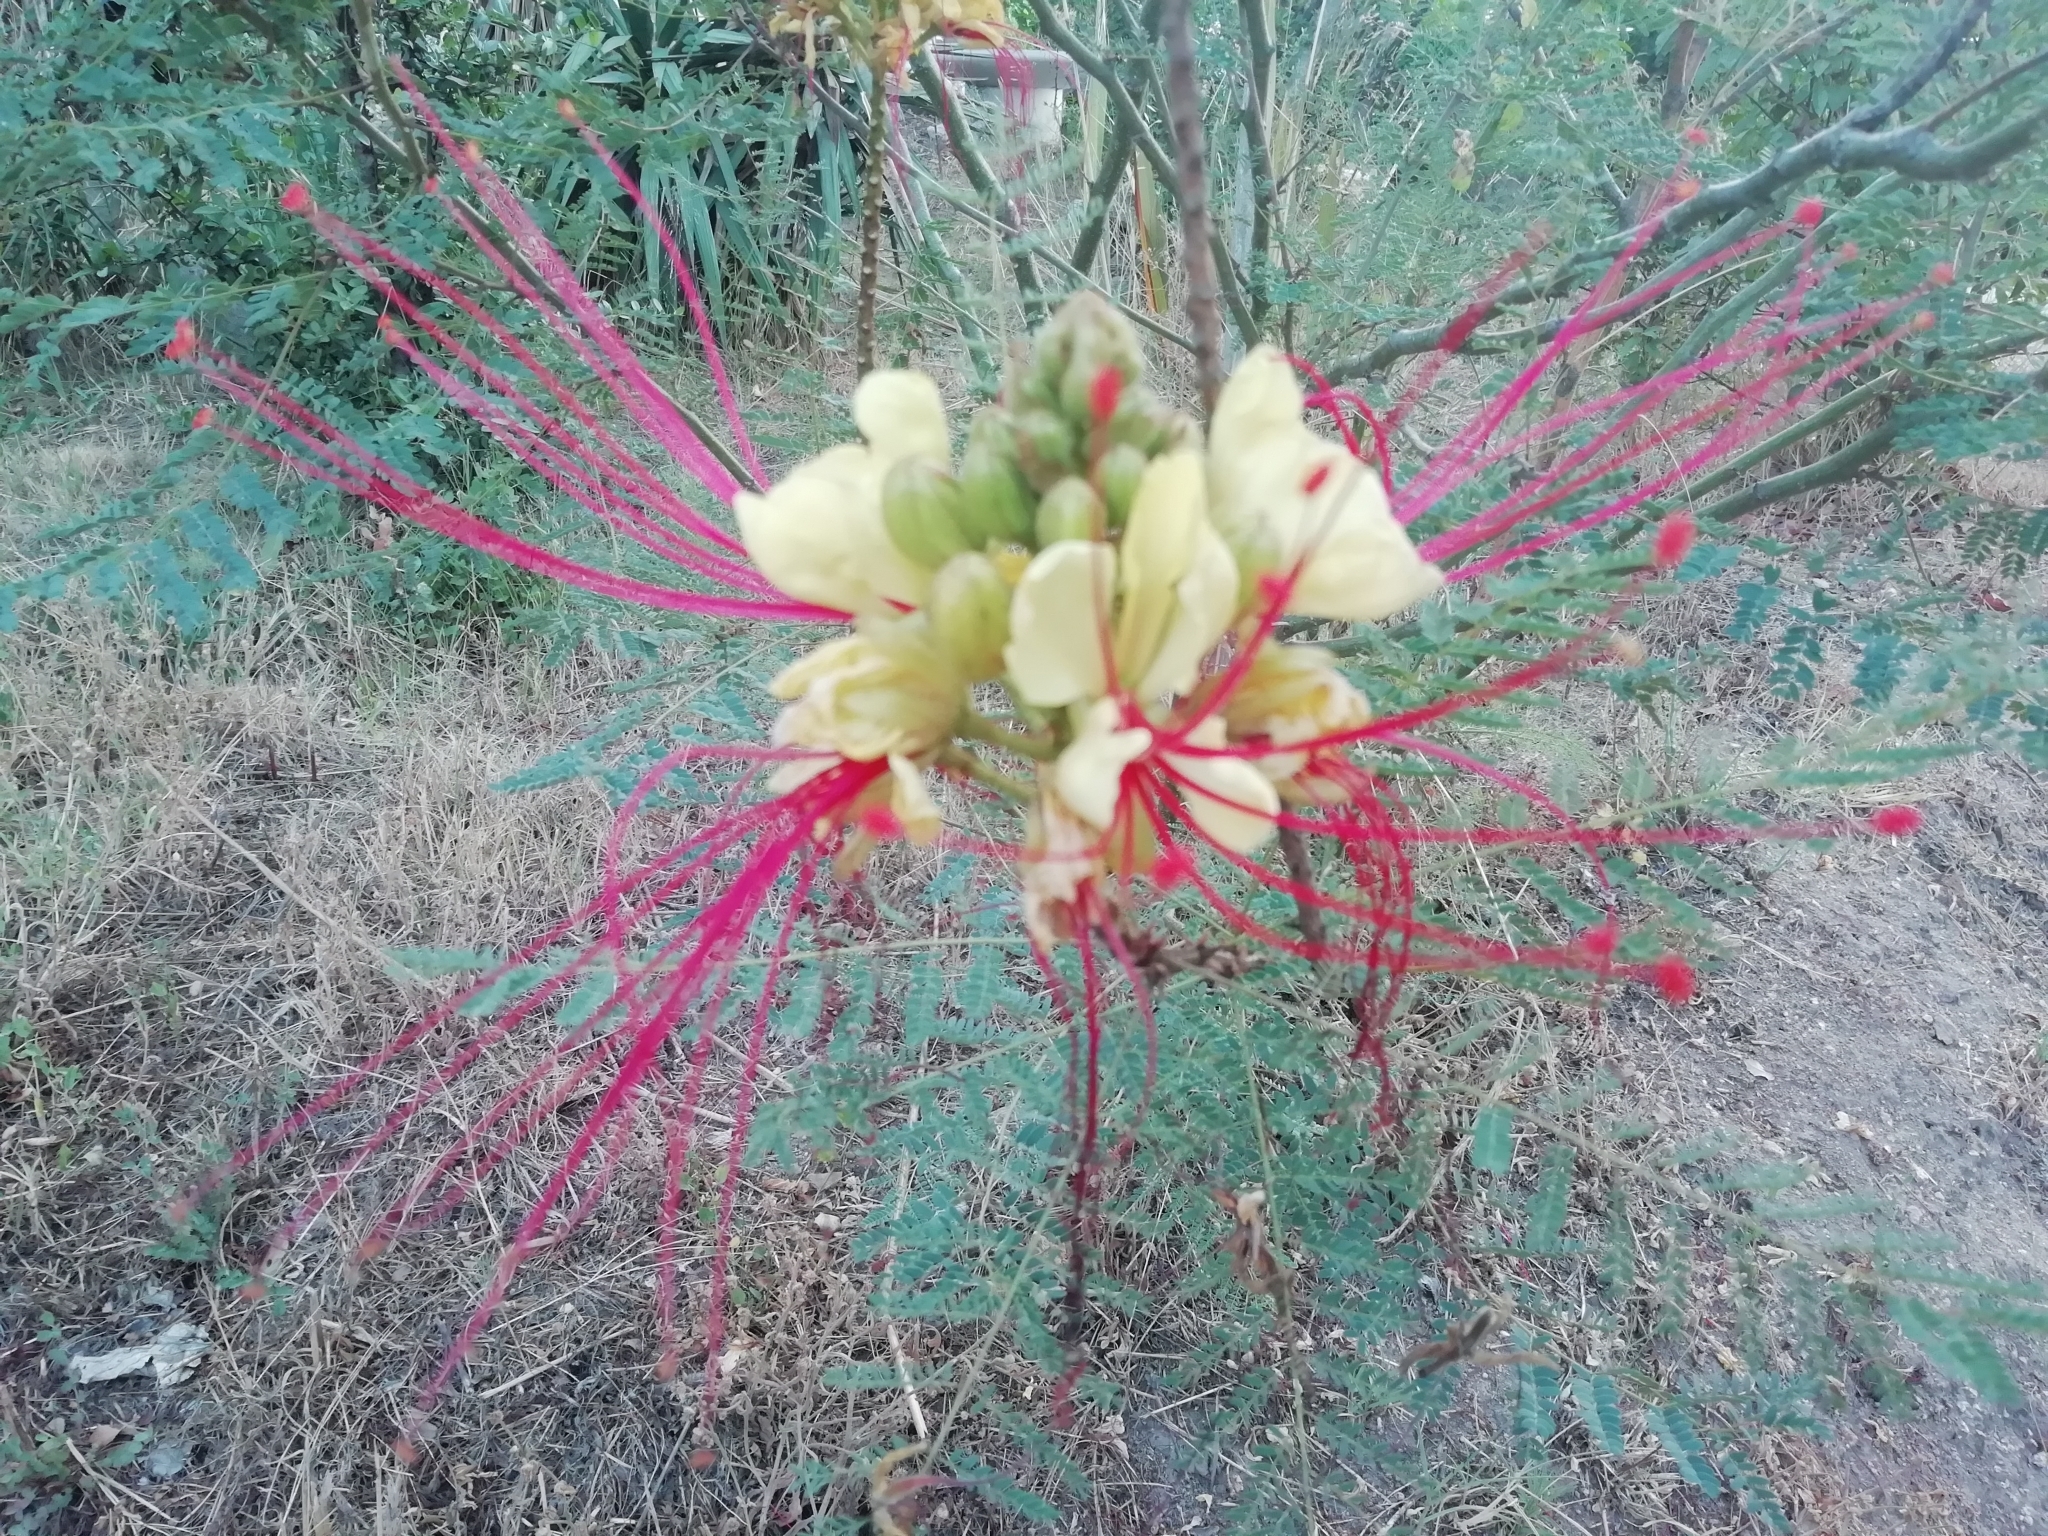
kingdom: Plantae
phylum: Tracheophyta
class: Magnoliopsida
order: Fabales
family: Fabaceae
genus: Erythrostemon
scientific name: Erythrostemon gilliesii
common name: Bird-of-paradise shrub
